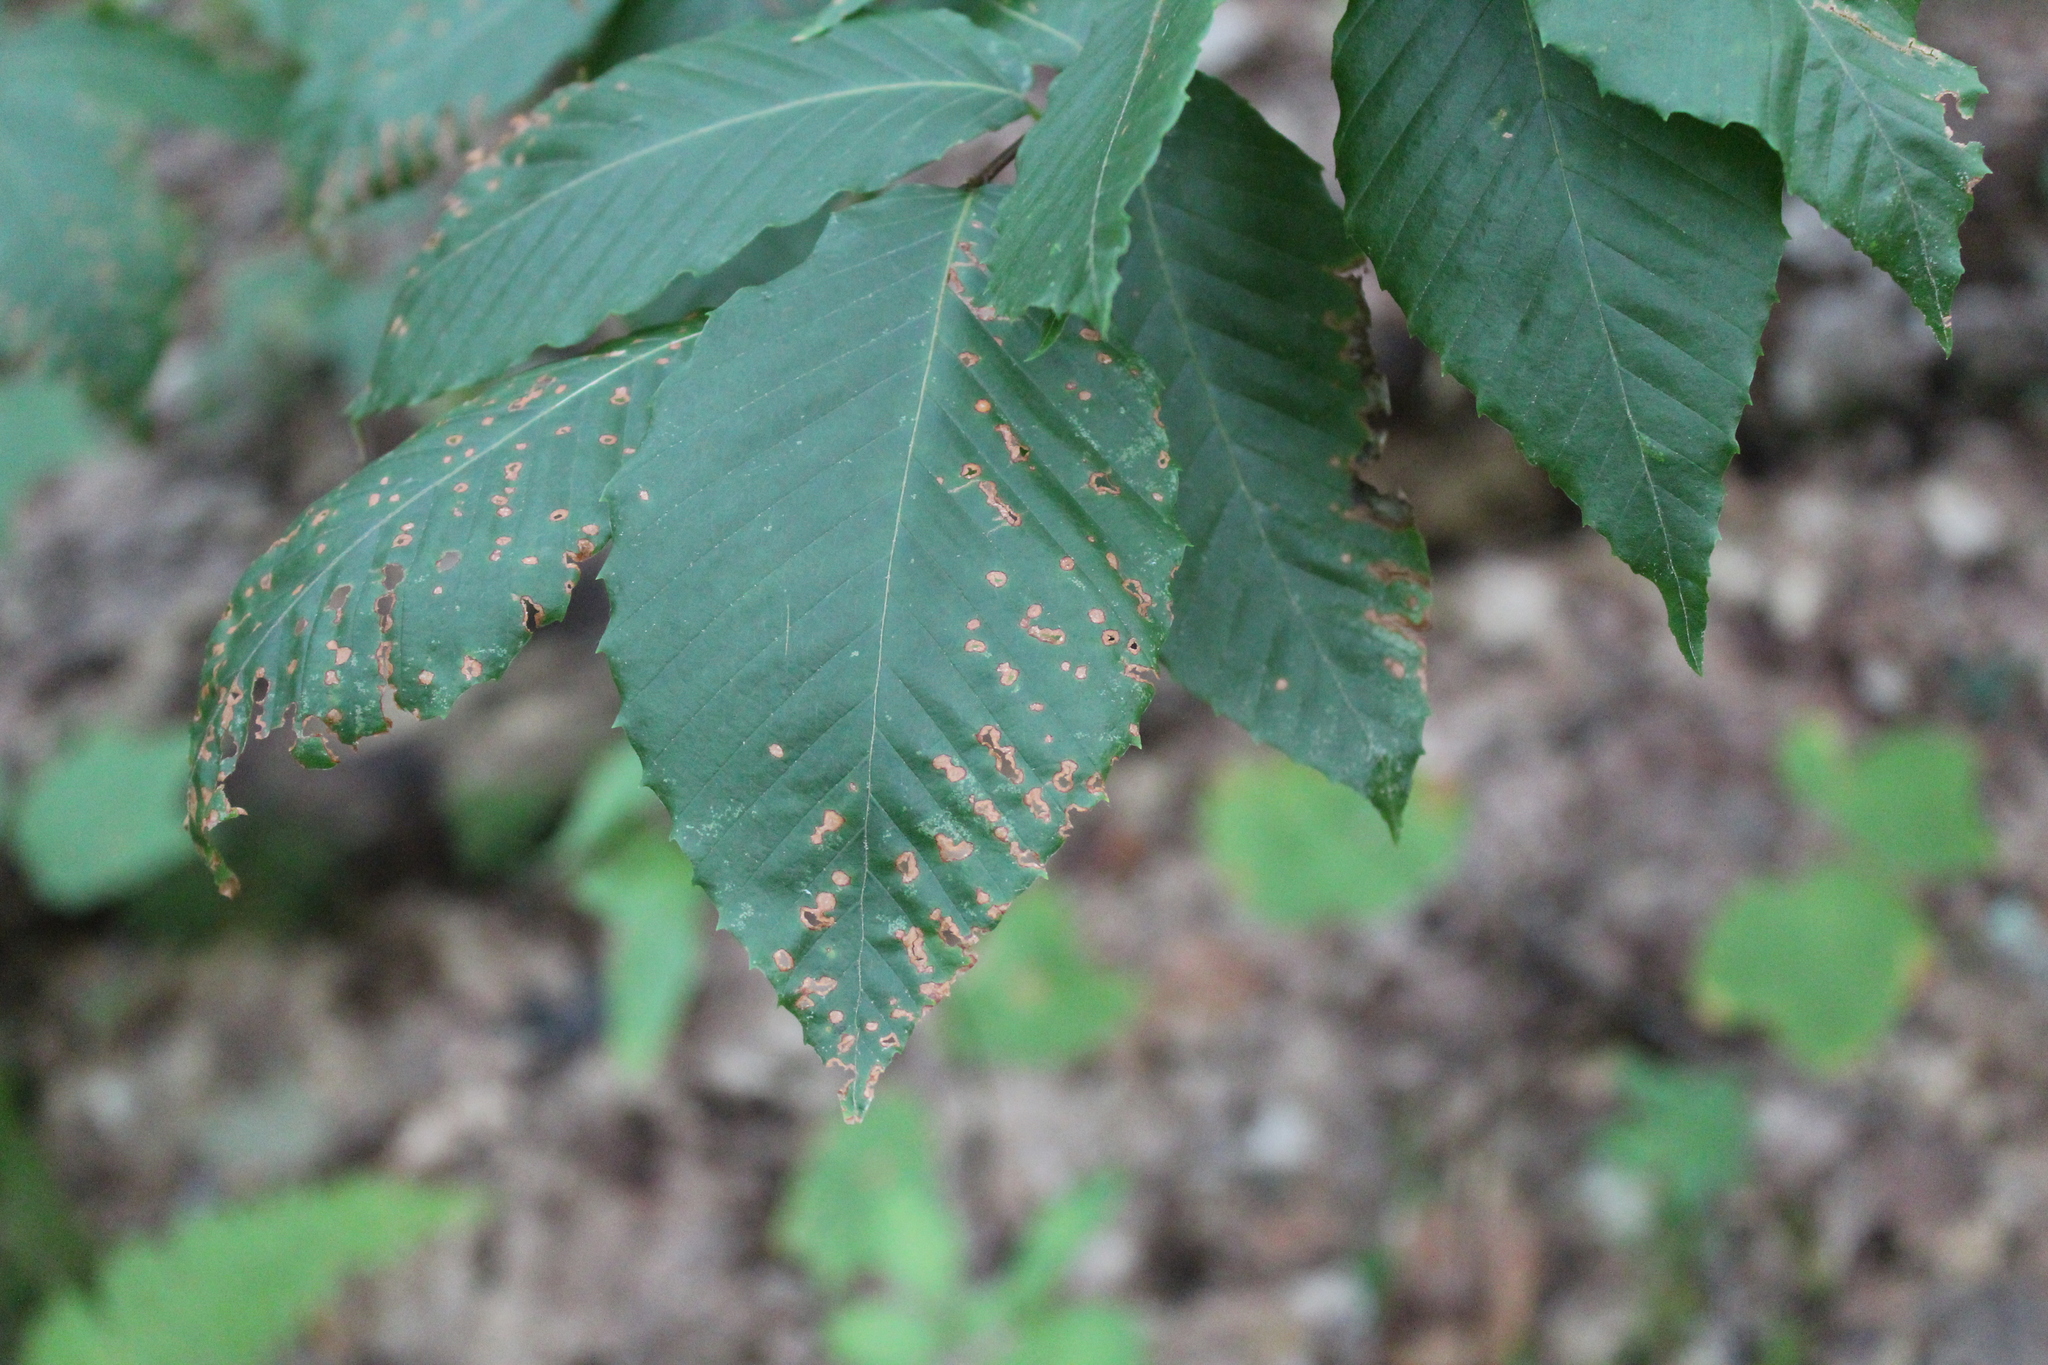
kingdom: Plantae
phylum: Tracheophyta
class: Magnoliopsida
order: Fagales
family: Fagaceae
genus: Fagus
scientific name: Fagus grandifolia
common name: American beech
